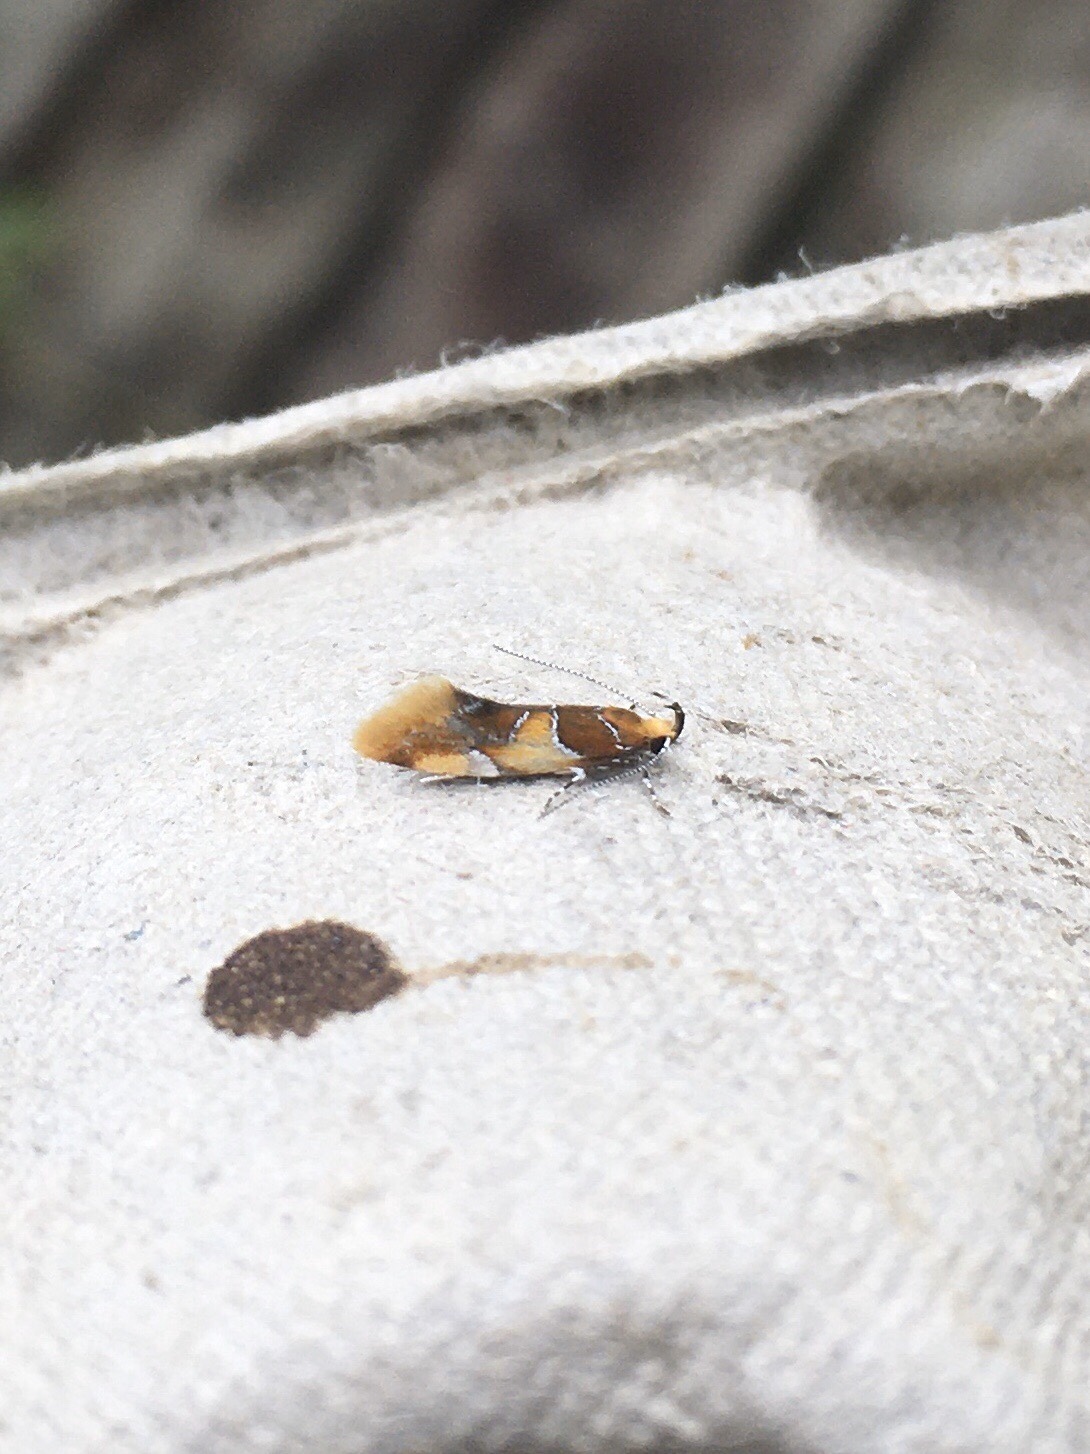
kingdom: Animalia
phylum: Arthropoda
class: Insecta
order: Lepidoptera
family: Oecophoridae
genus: Callima
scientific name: Callima argenticinctella
